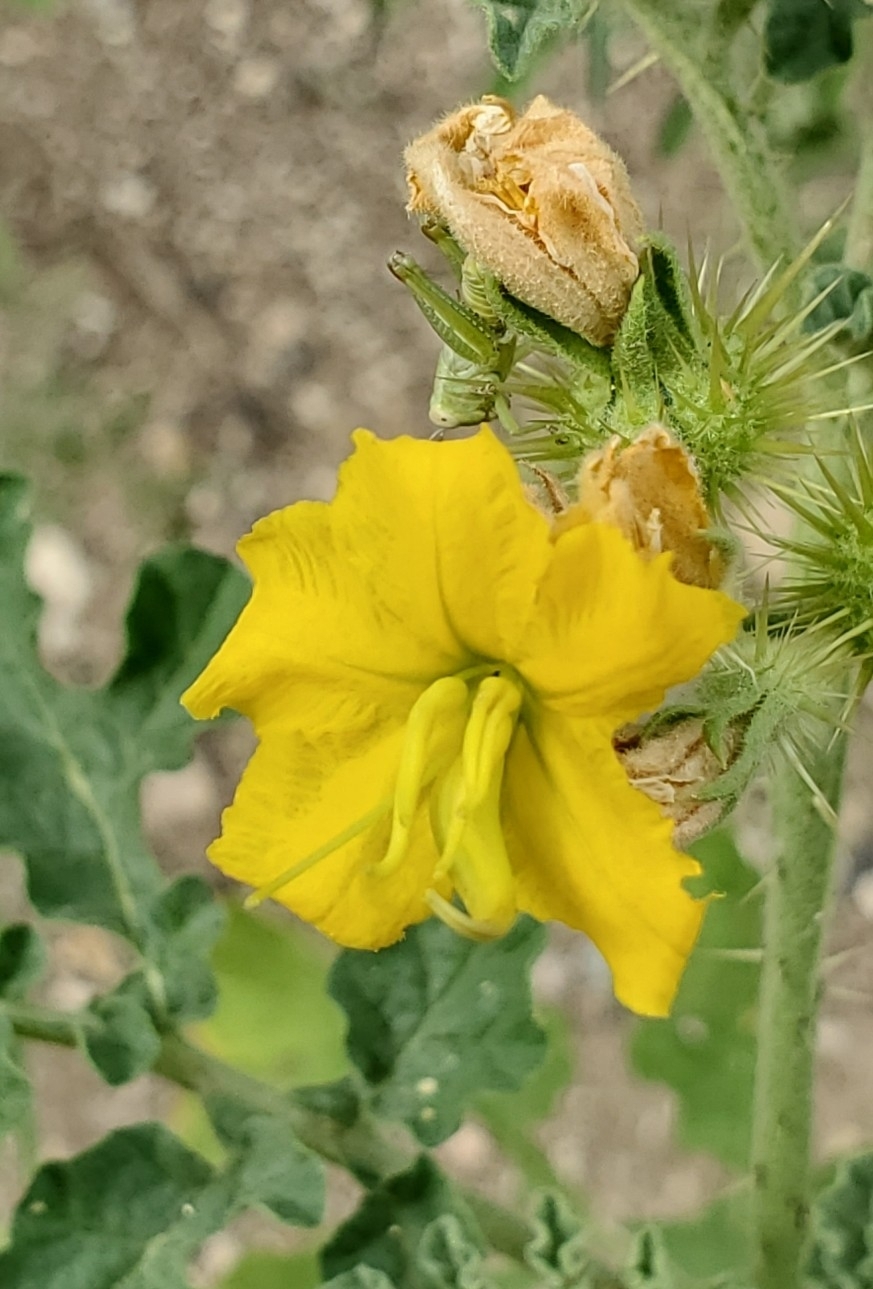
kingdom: Plantae
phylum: Tracheophyta
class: Magnoliopsida
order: Solanales
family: Solanaceae
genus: Solanum
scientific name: Solanum angustifolium
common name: Buffalobur nightshade
